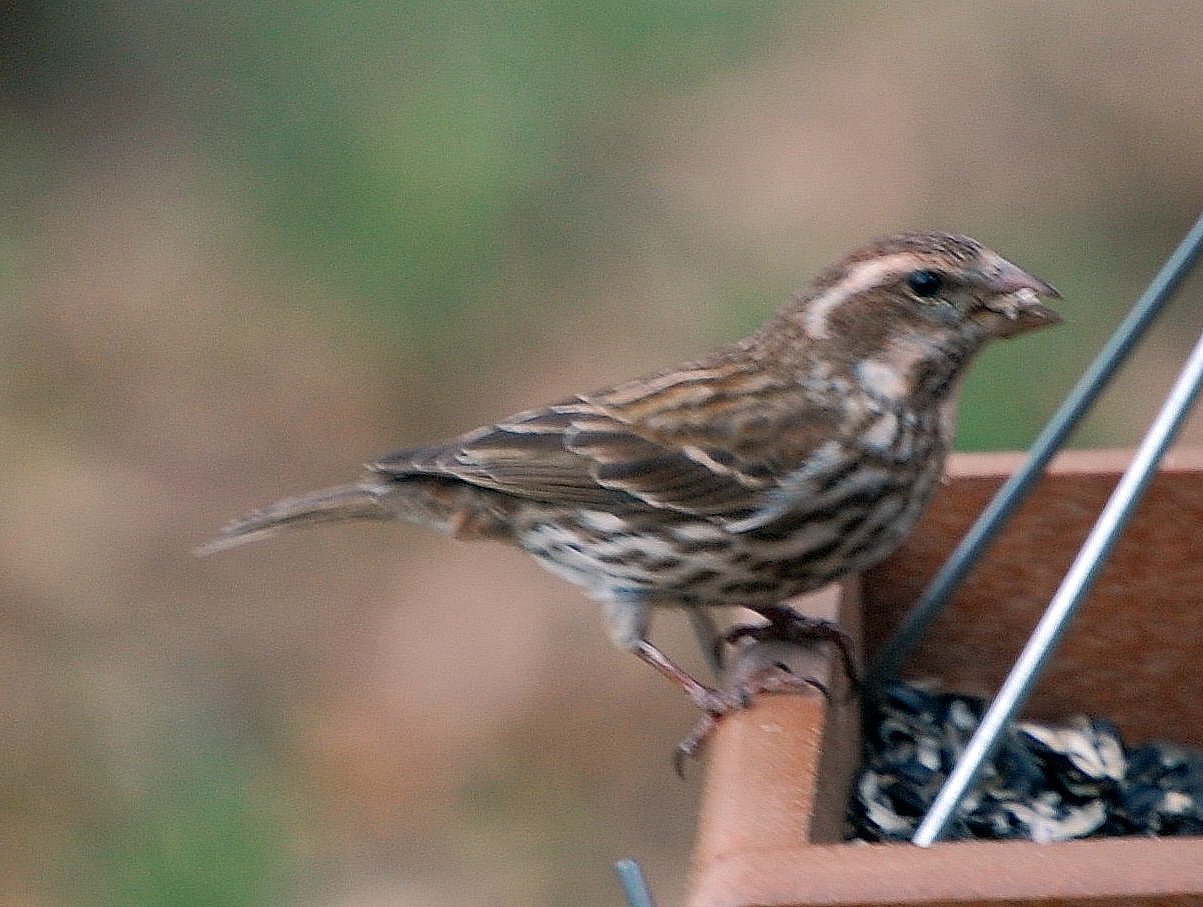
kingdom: Animalia
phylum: Chordata
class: Aves
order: Passeriformes
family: Fringillidae
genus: Haemorhous
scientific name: Haemorhous purpureus
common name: Purple finch
